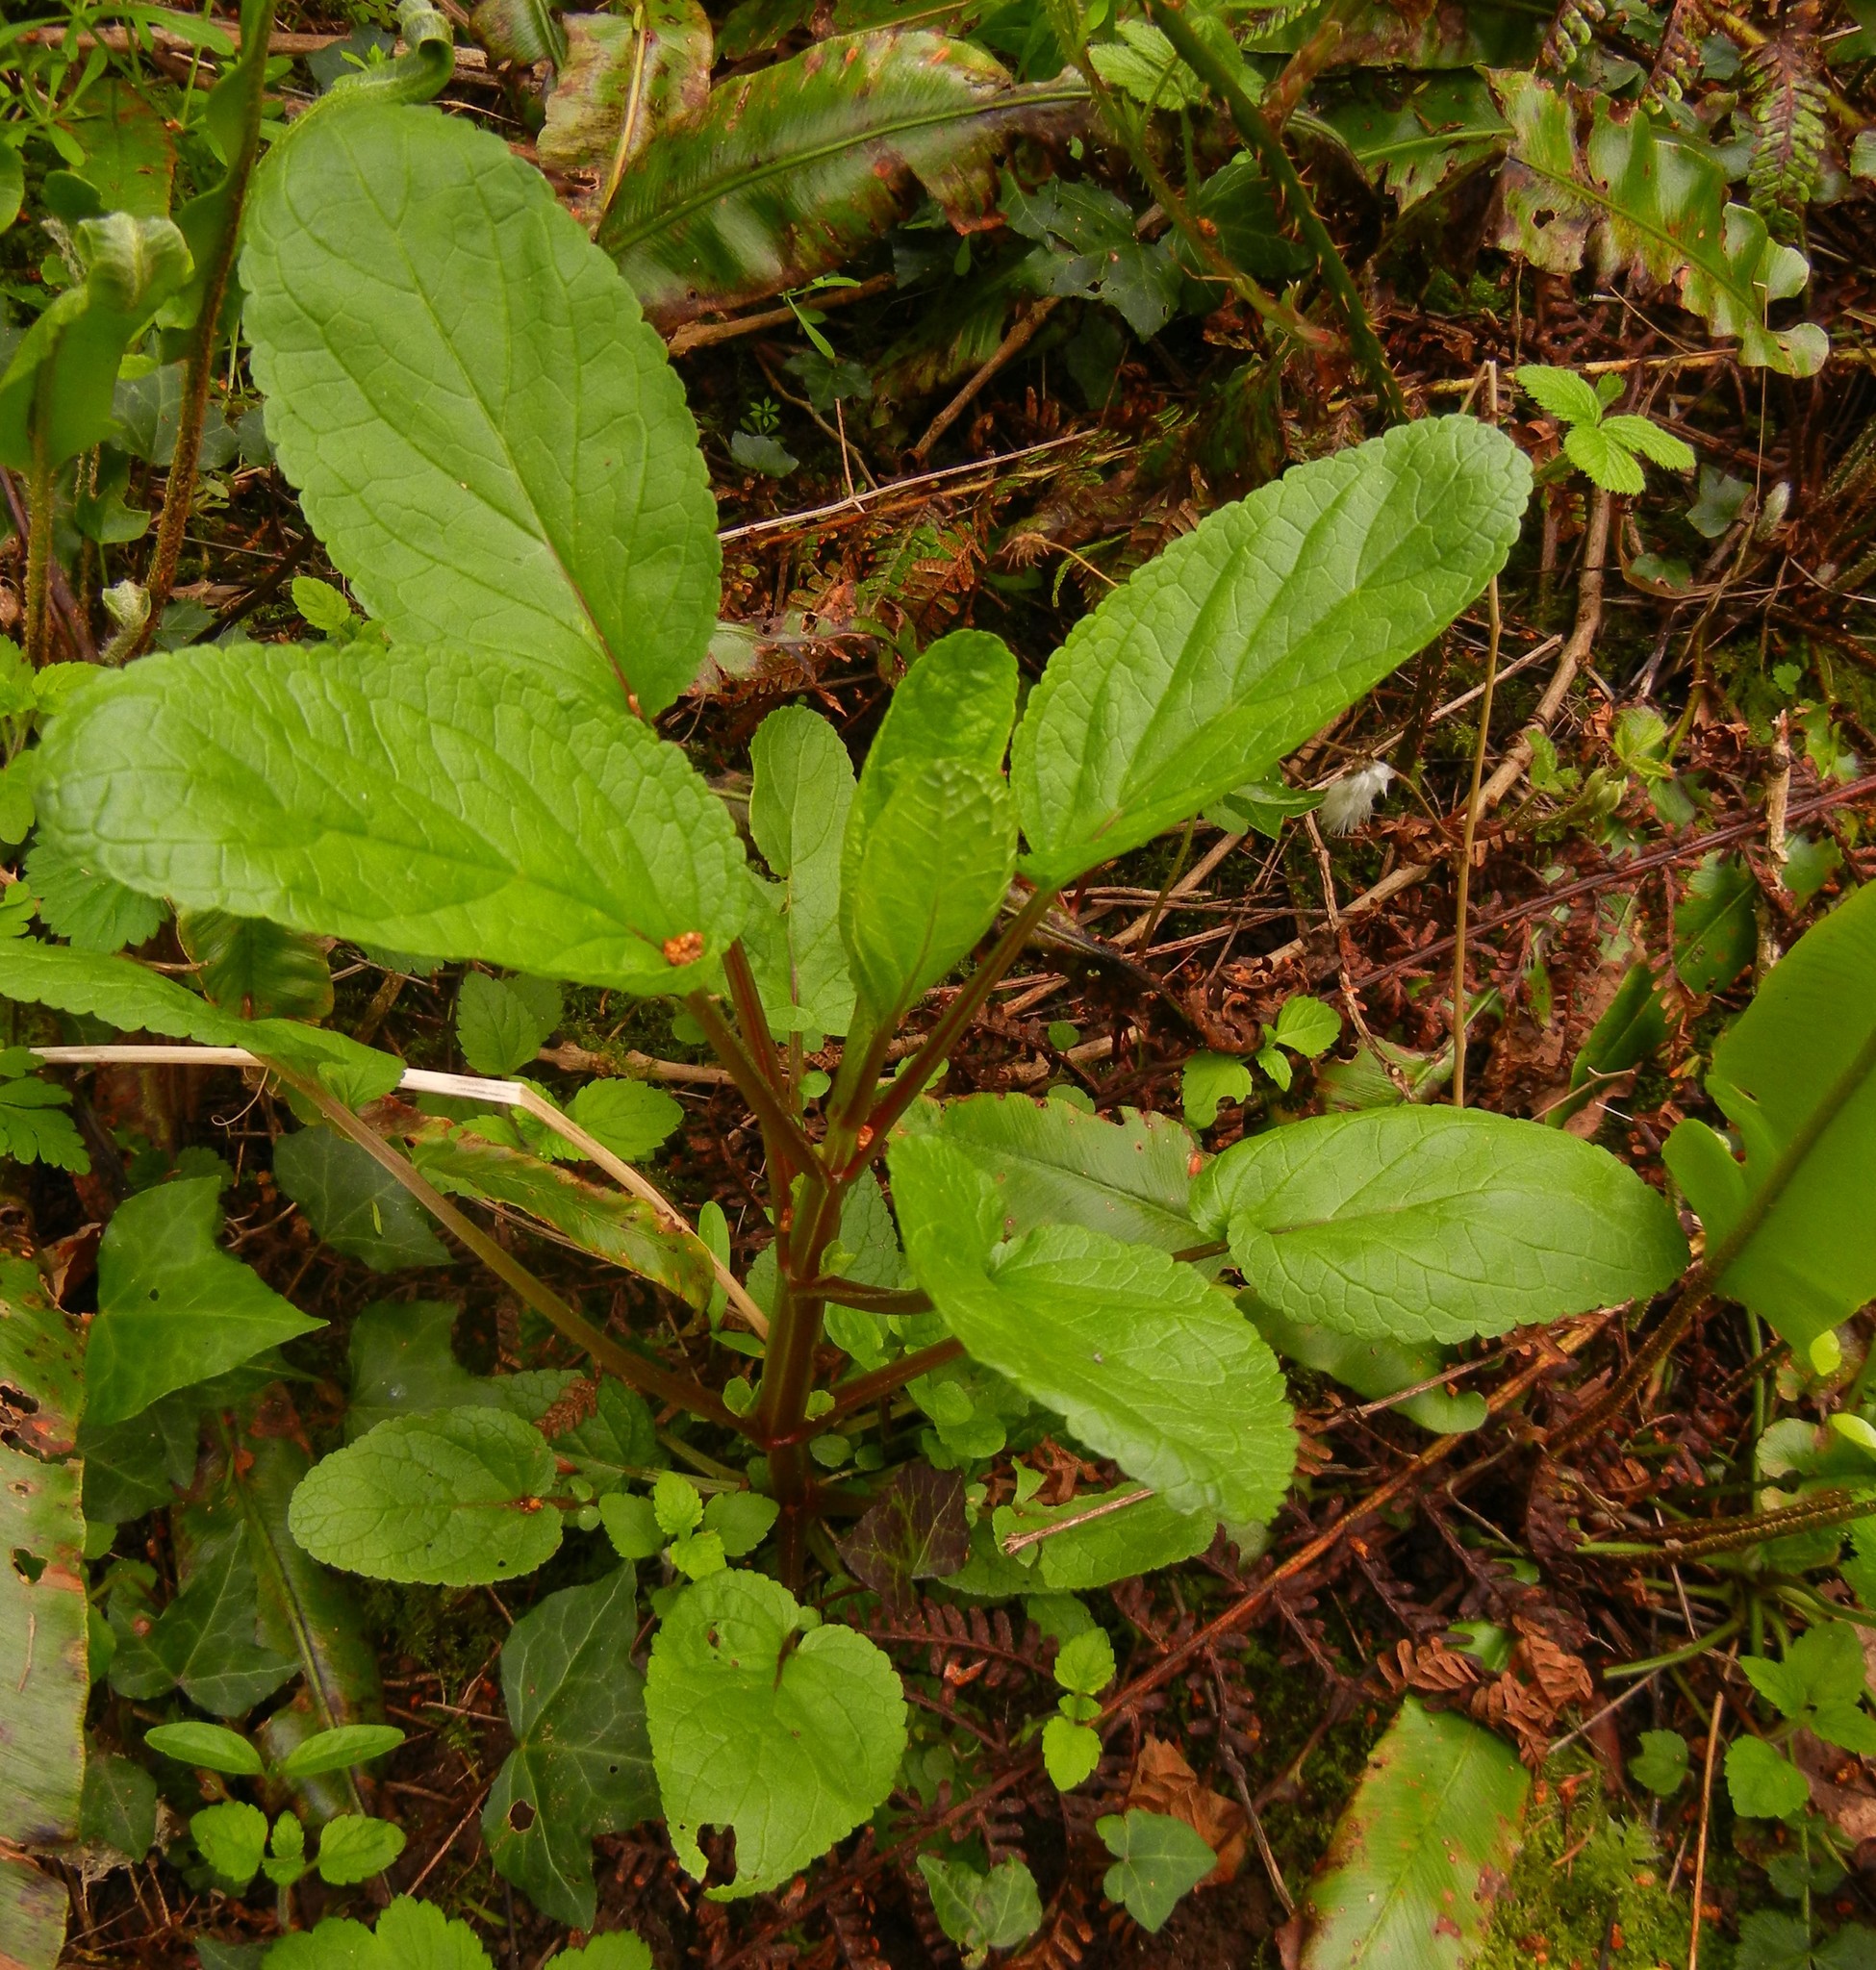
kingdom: Plantae
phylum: Tracheophyta
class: Magnoliopsida
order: Lamiales
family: Scrophulariaceae
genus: Scrophularia
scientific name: Scrophularia auriculata
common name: Water betony
